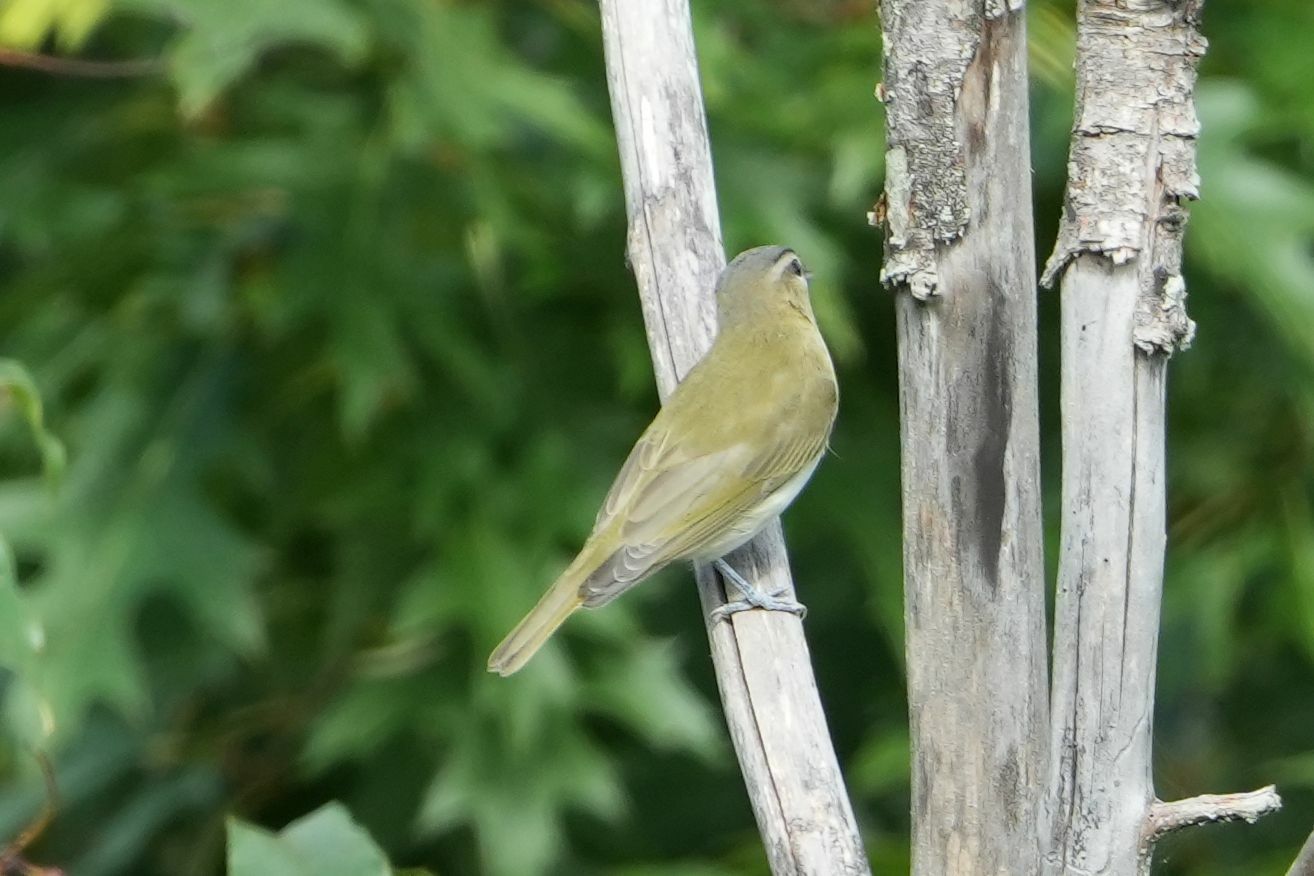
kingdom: Animalia
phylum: Chordata
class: Aves
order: Passeriformes
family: Vireonidae
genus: Vireo
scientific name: Vireo olivaceus
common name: Red-eyed vireo
